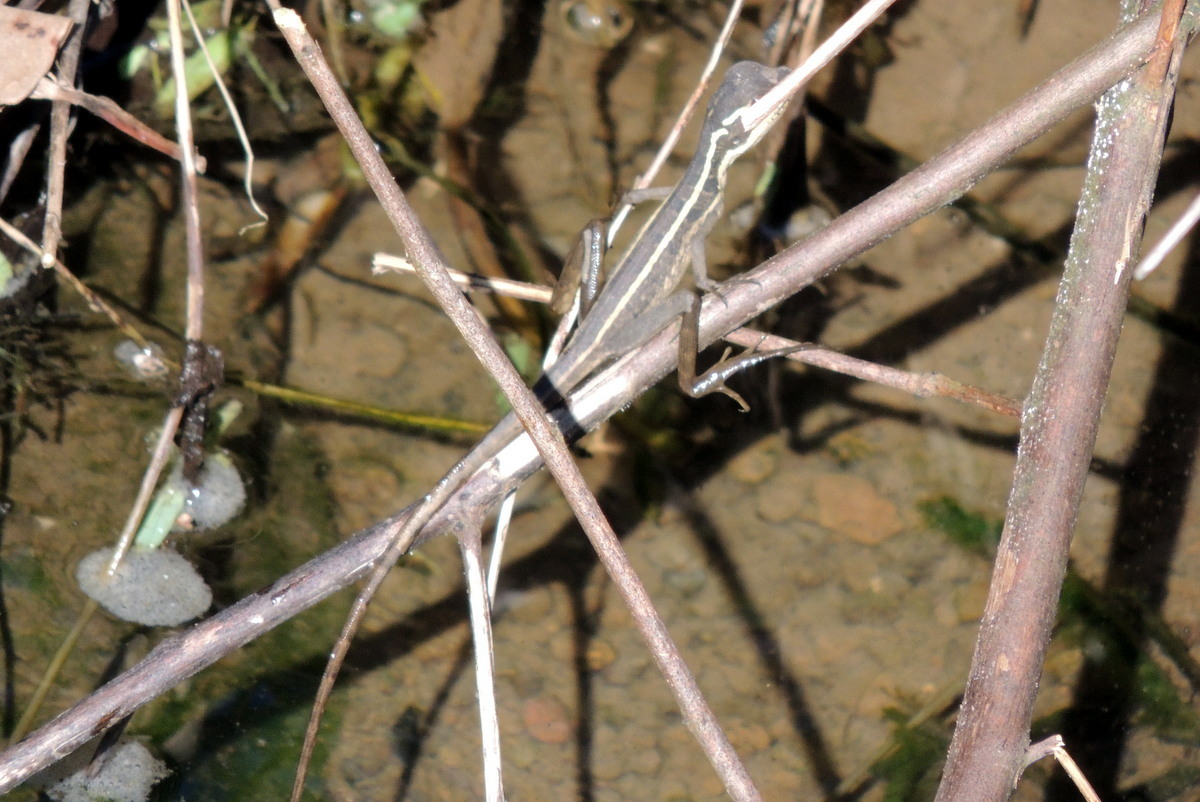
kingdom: Animalia
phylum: Chordata
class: Squamata
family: Corytophanidae
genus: Basiliscus
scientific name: Basiliscus vittatus
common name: Brown basilisk
